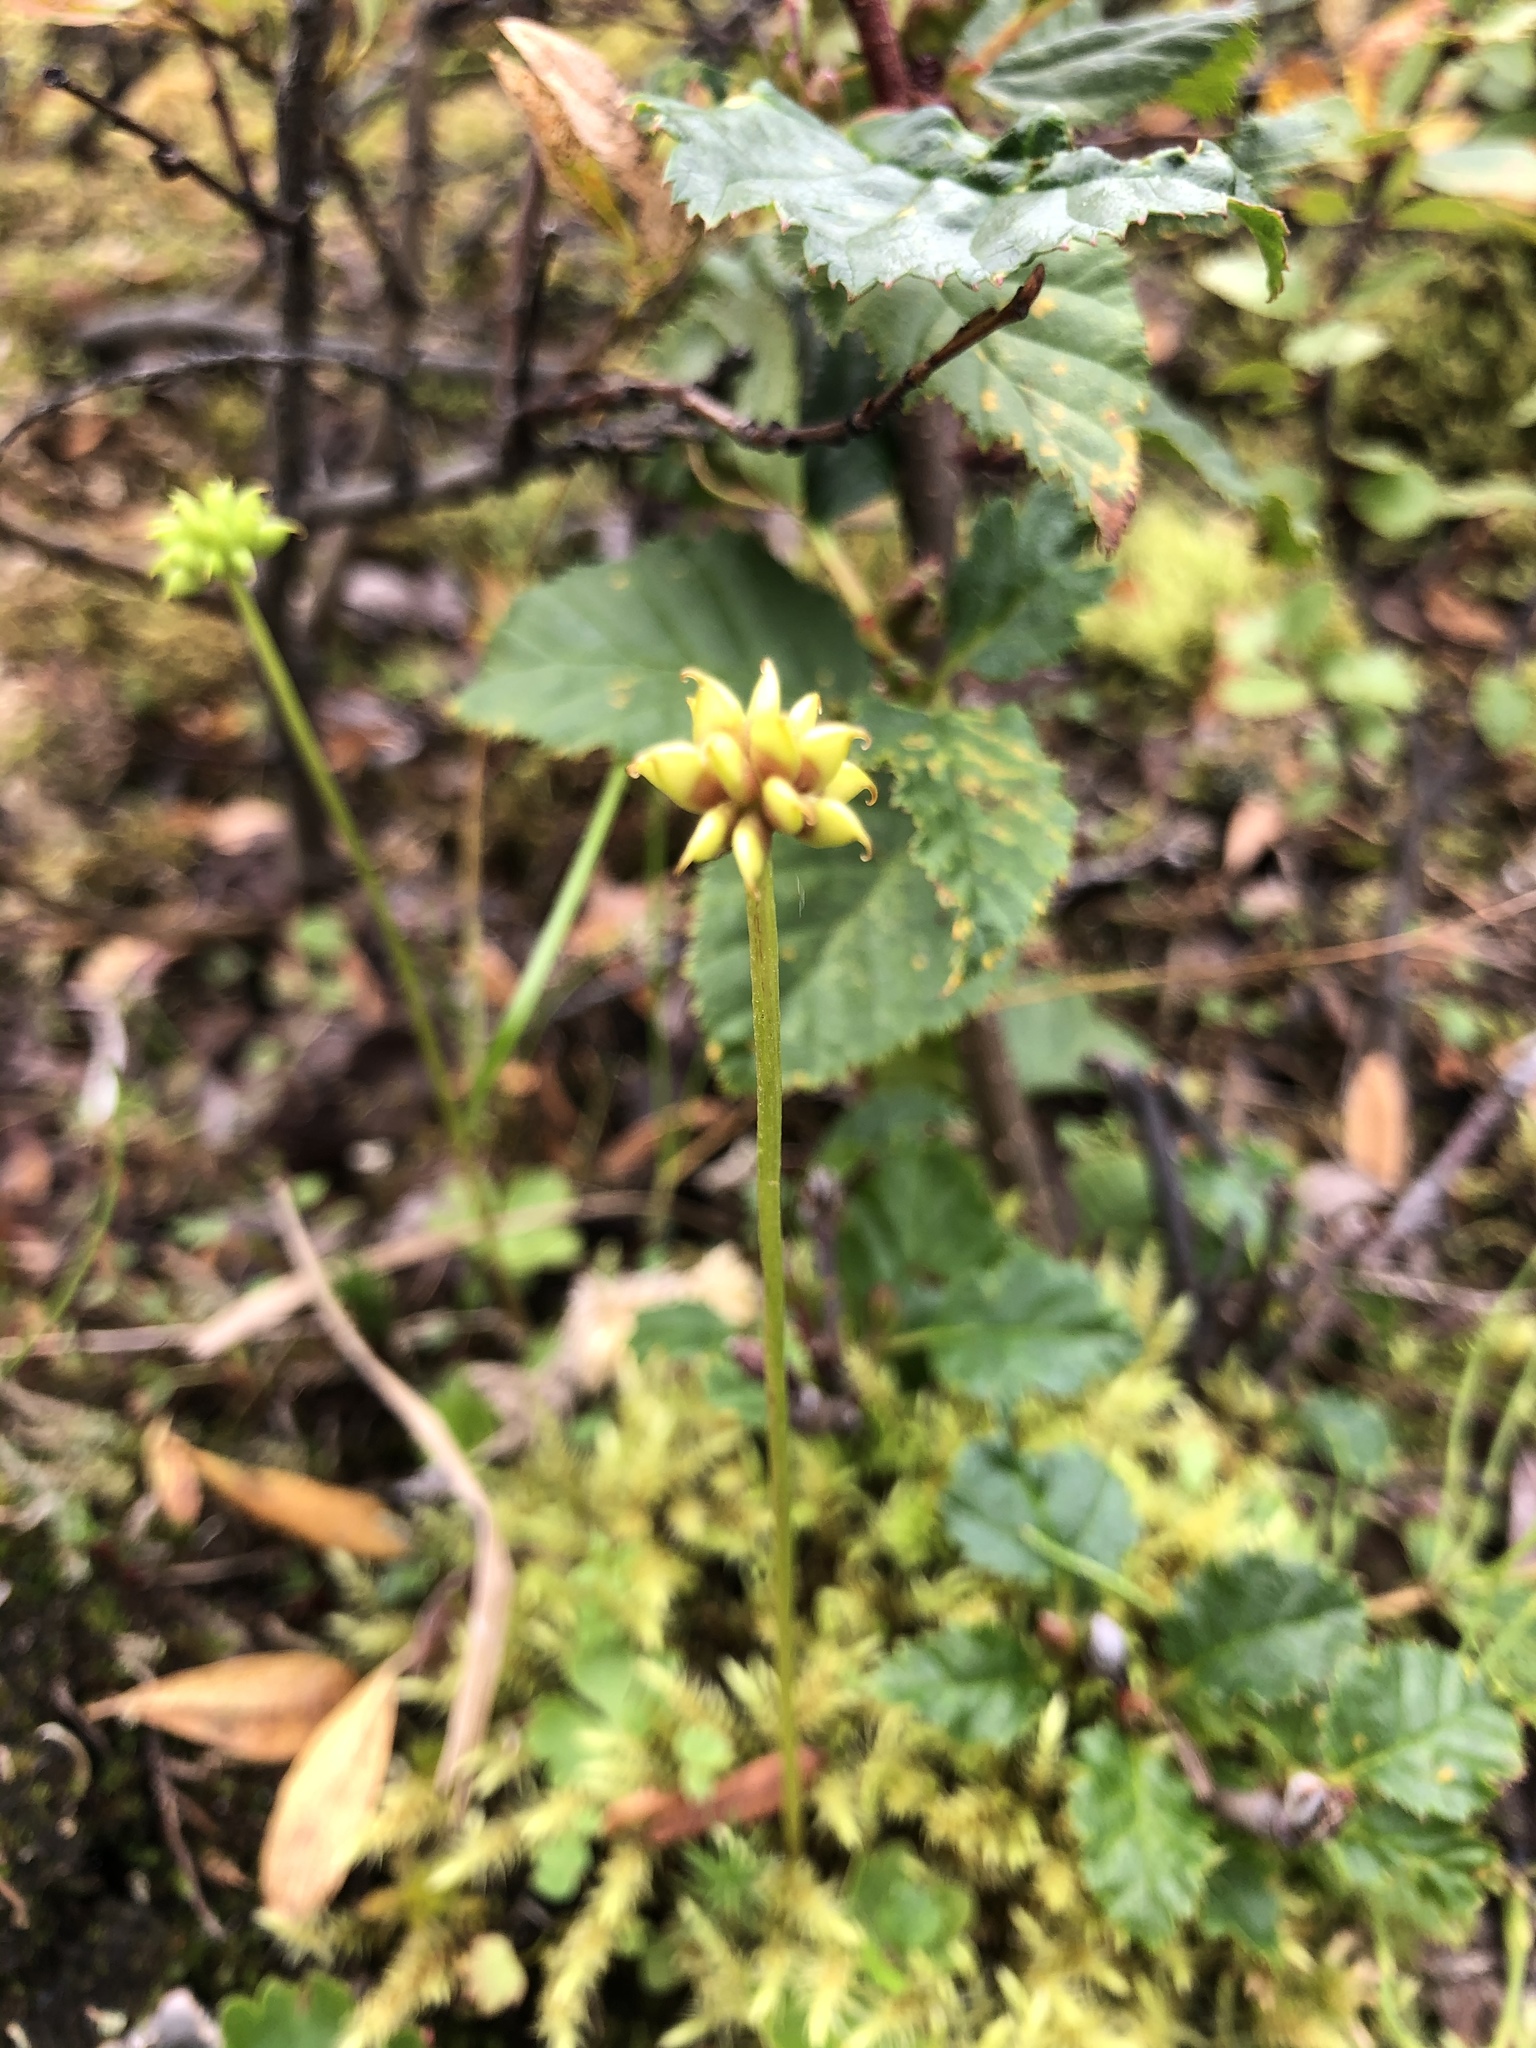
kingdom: Plantae
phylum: Tracheophyta
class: Magnoliopsida
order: Ranunculales
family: Ranunculaceae
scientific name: Ranunculaceae
